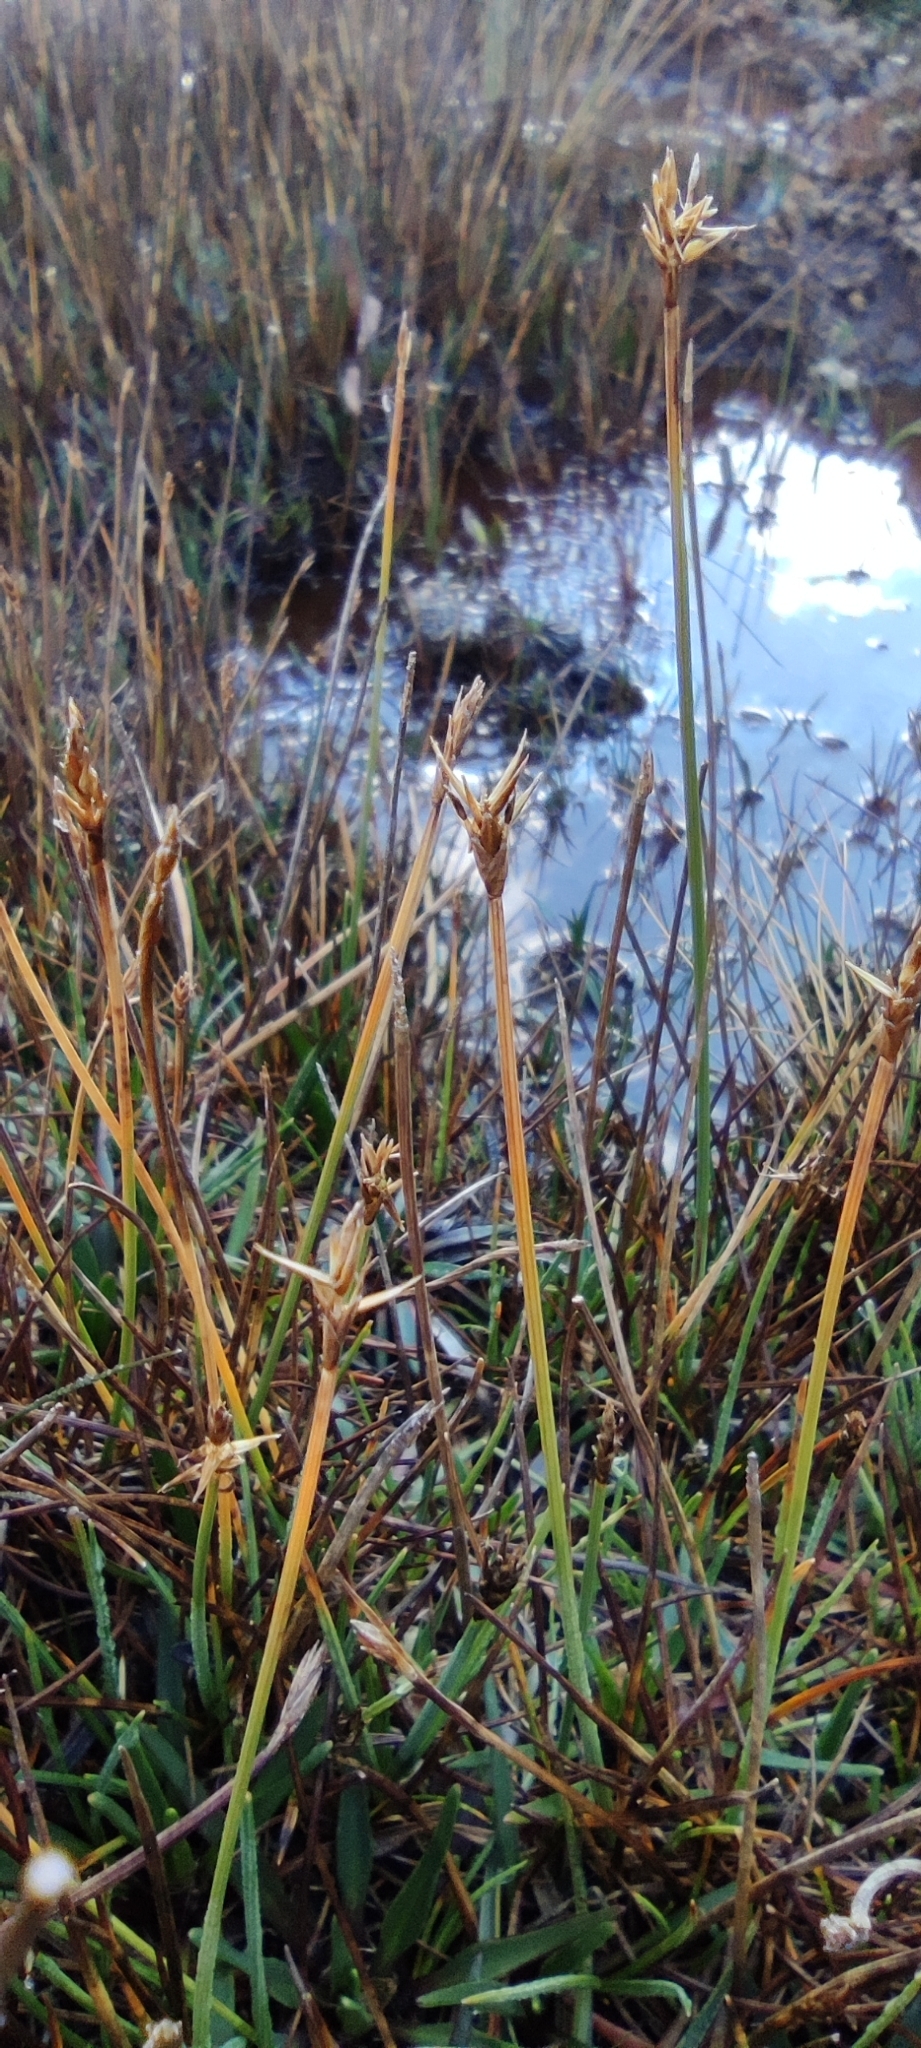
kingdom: Plantae
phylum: Tracheophyta
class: Liliopsida
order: Poales
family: Cyperaceae
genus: Carex
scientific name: Carex camptoglochin
